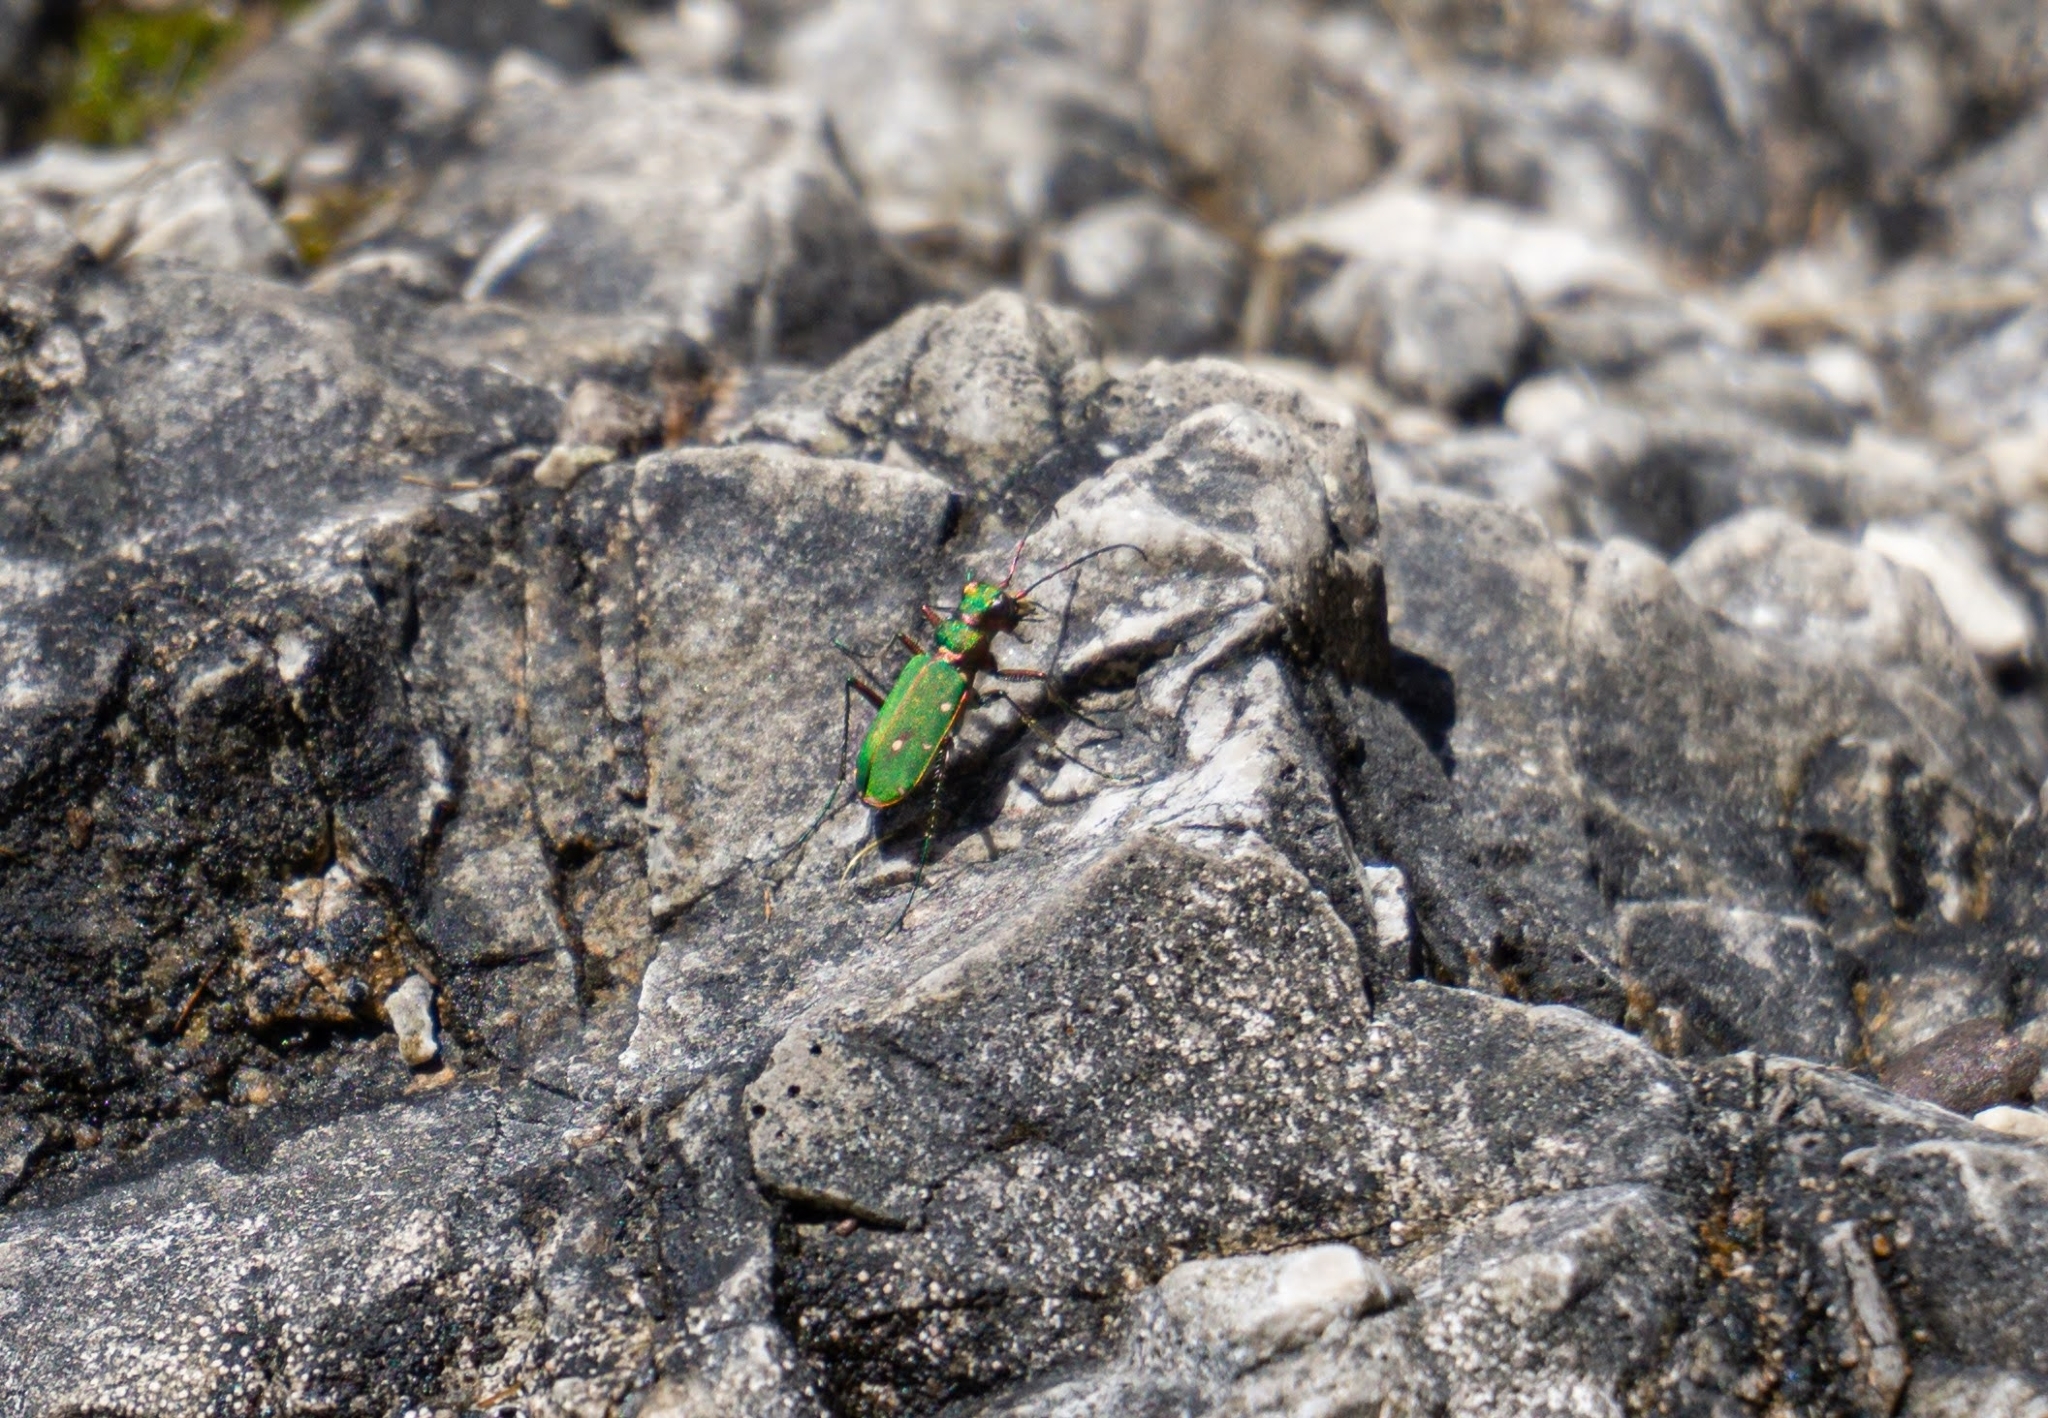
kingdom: Animalia
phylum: Arthropoda
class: Insecta
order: Coleoptera
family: Carabidae
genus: Cicindela
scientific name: Cicindela campestris
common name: Common tiger beetle
